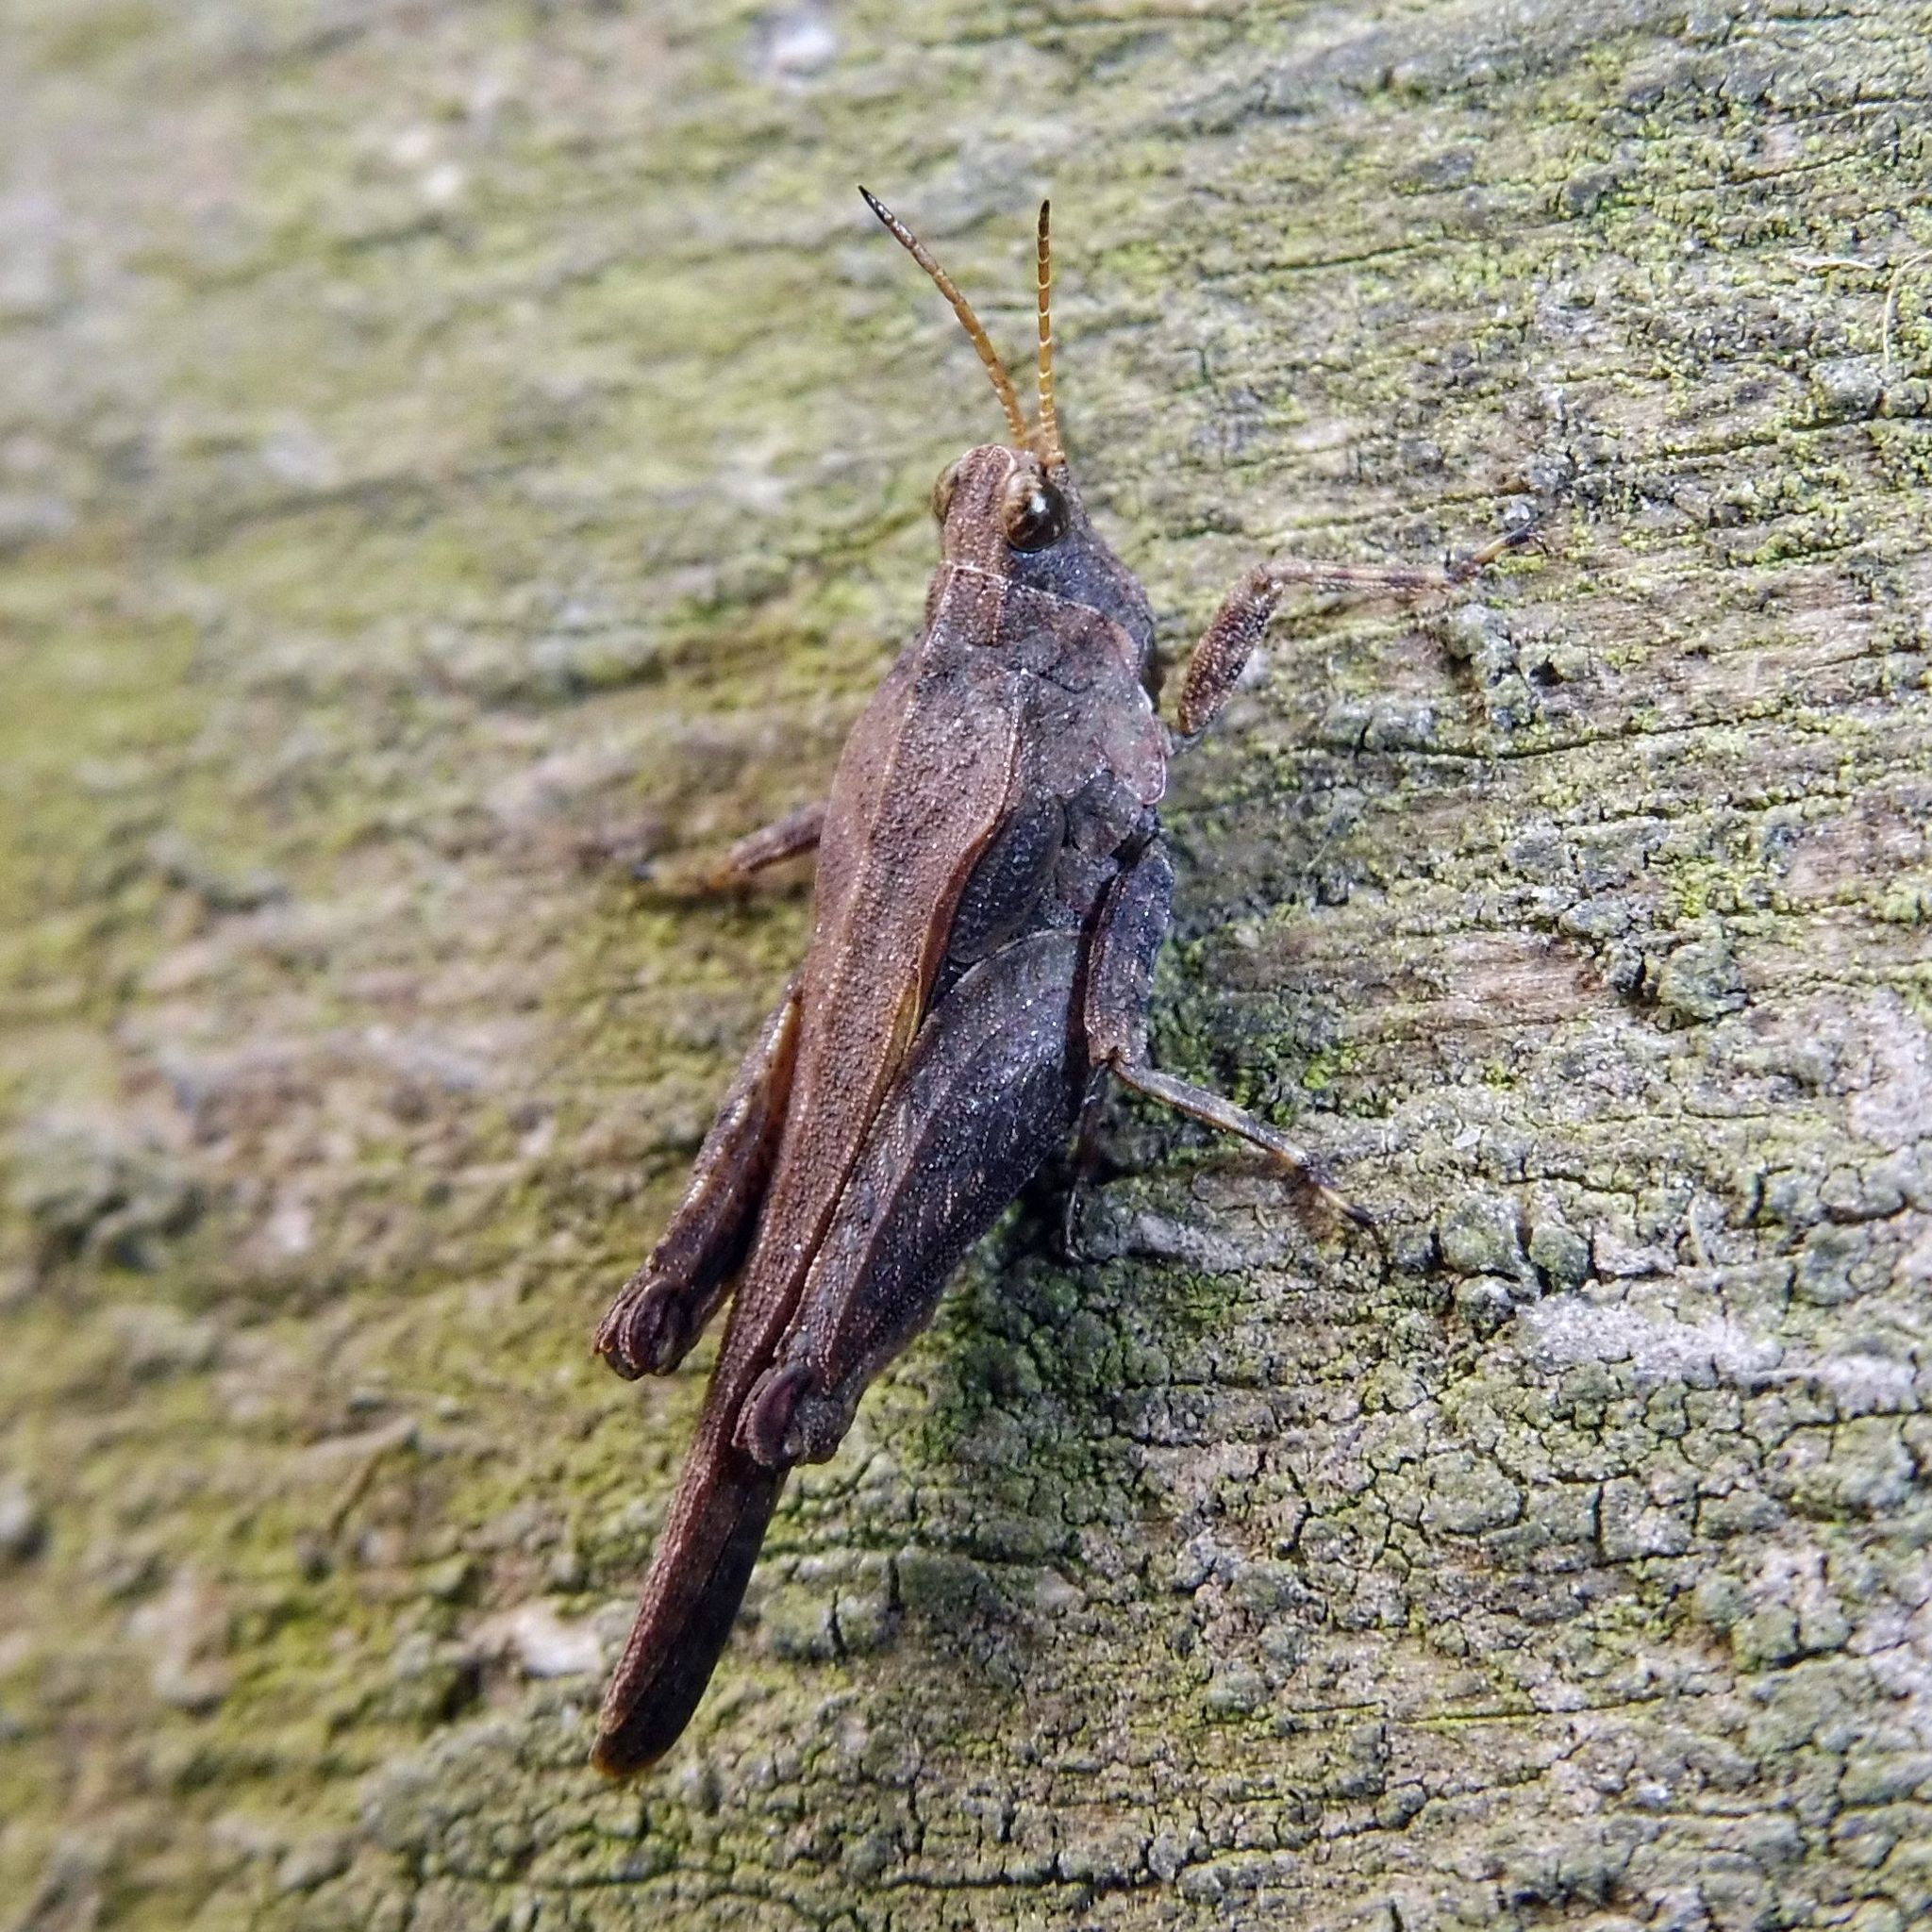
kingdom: Animalia
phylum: Arthropoda
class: Insecta
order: Orthoptera
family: Tetrigidae
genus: Tetrix
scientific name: Tetrix subulata
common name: Slender ground-hopper
